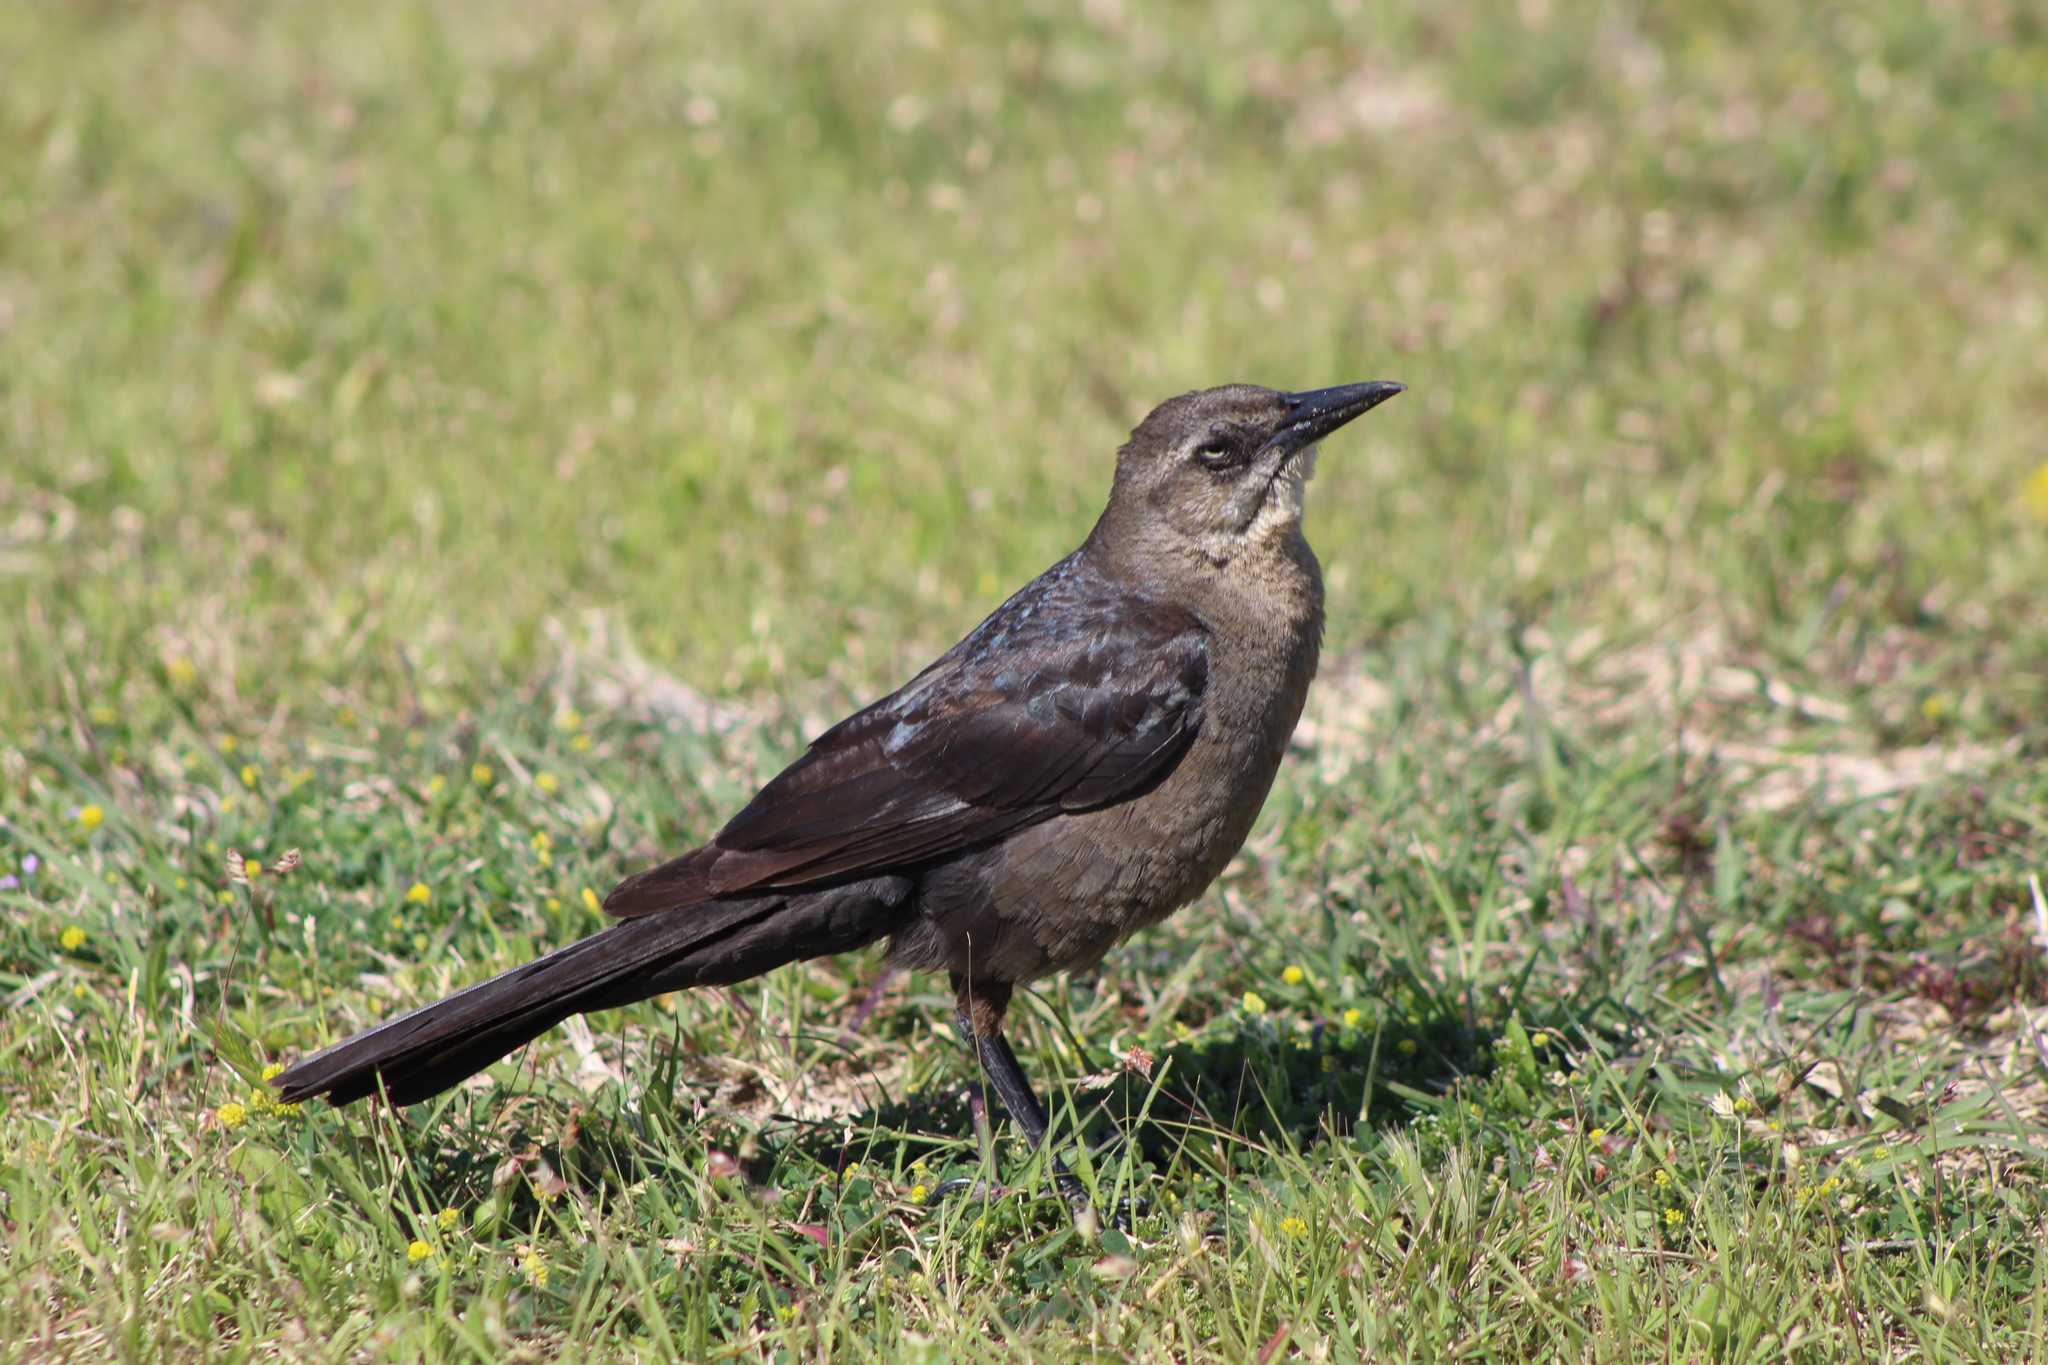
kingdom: Animalia
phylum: Chordata
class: Aves
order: Passeriformes
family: Icteridae
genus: Quiscalus
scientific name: Quiscalus mexicanus
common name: Great-tailed grackle
